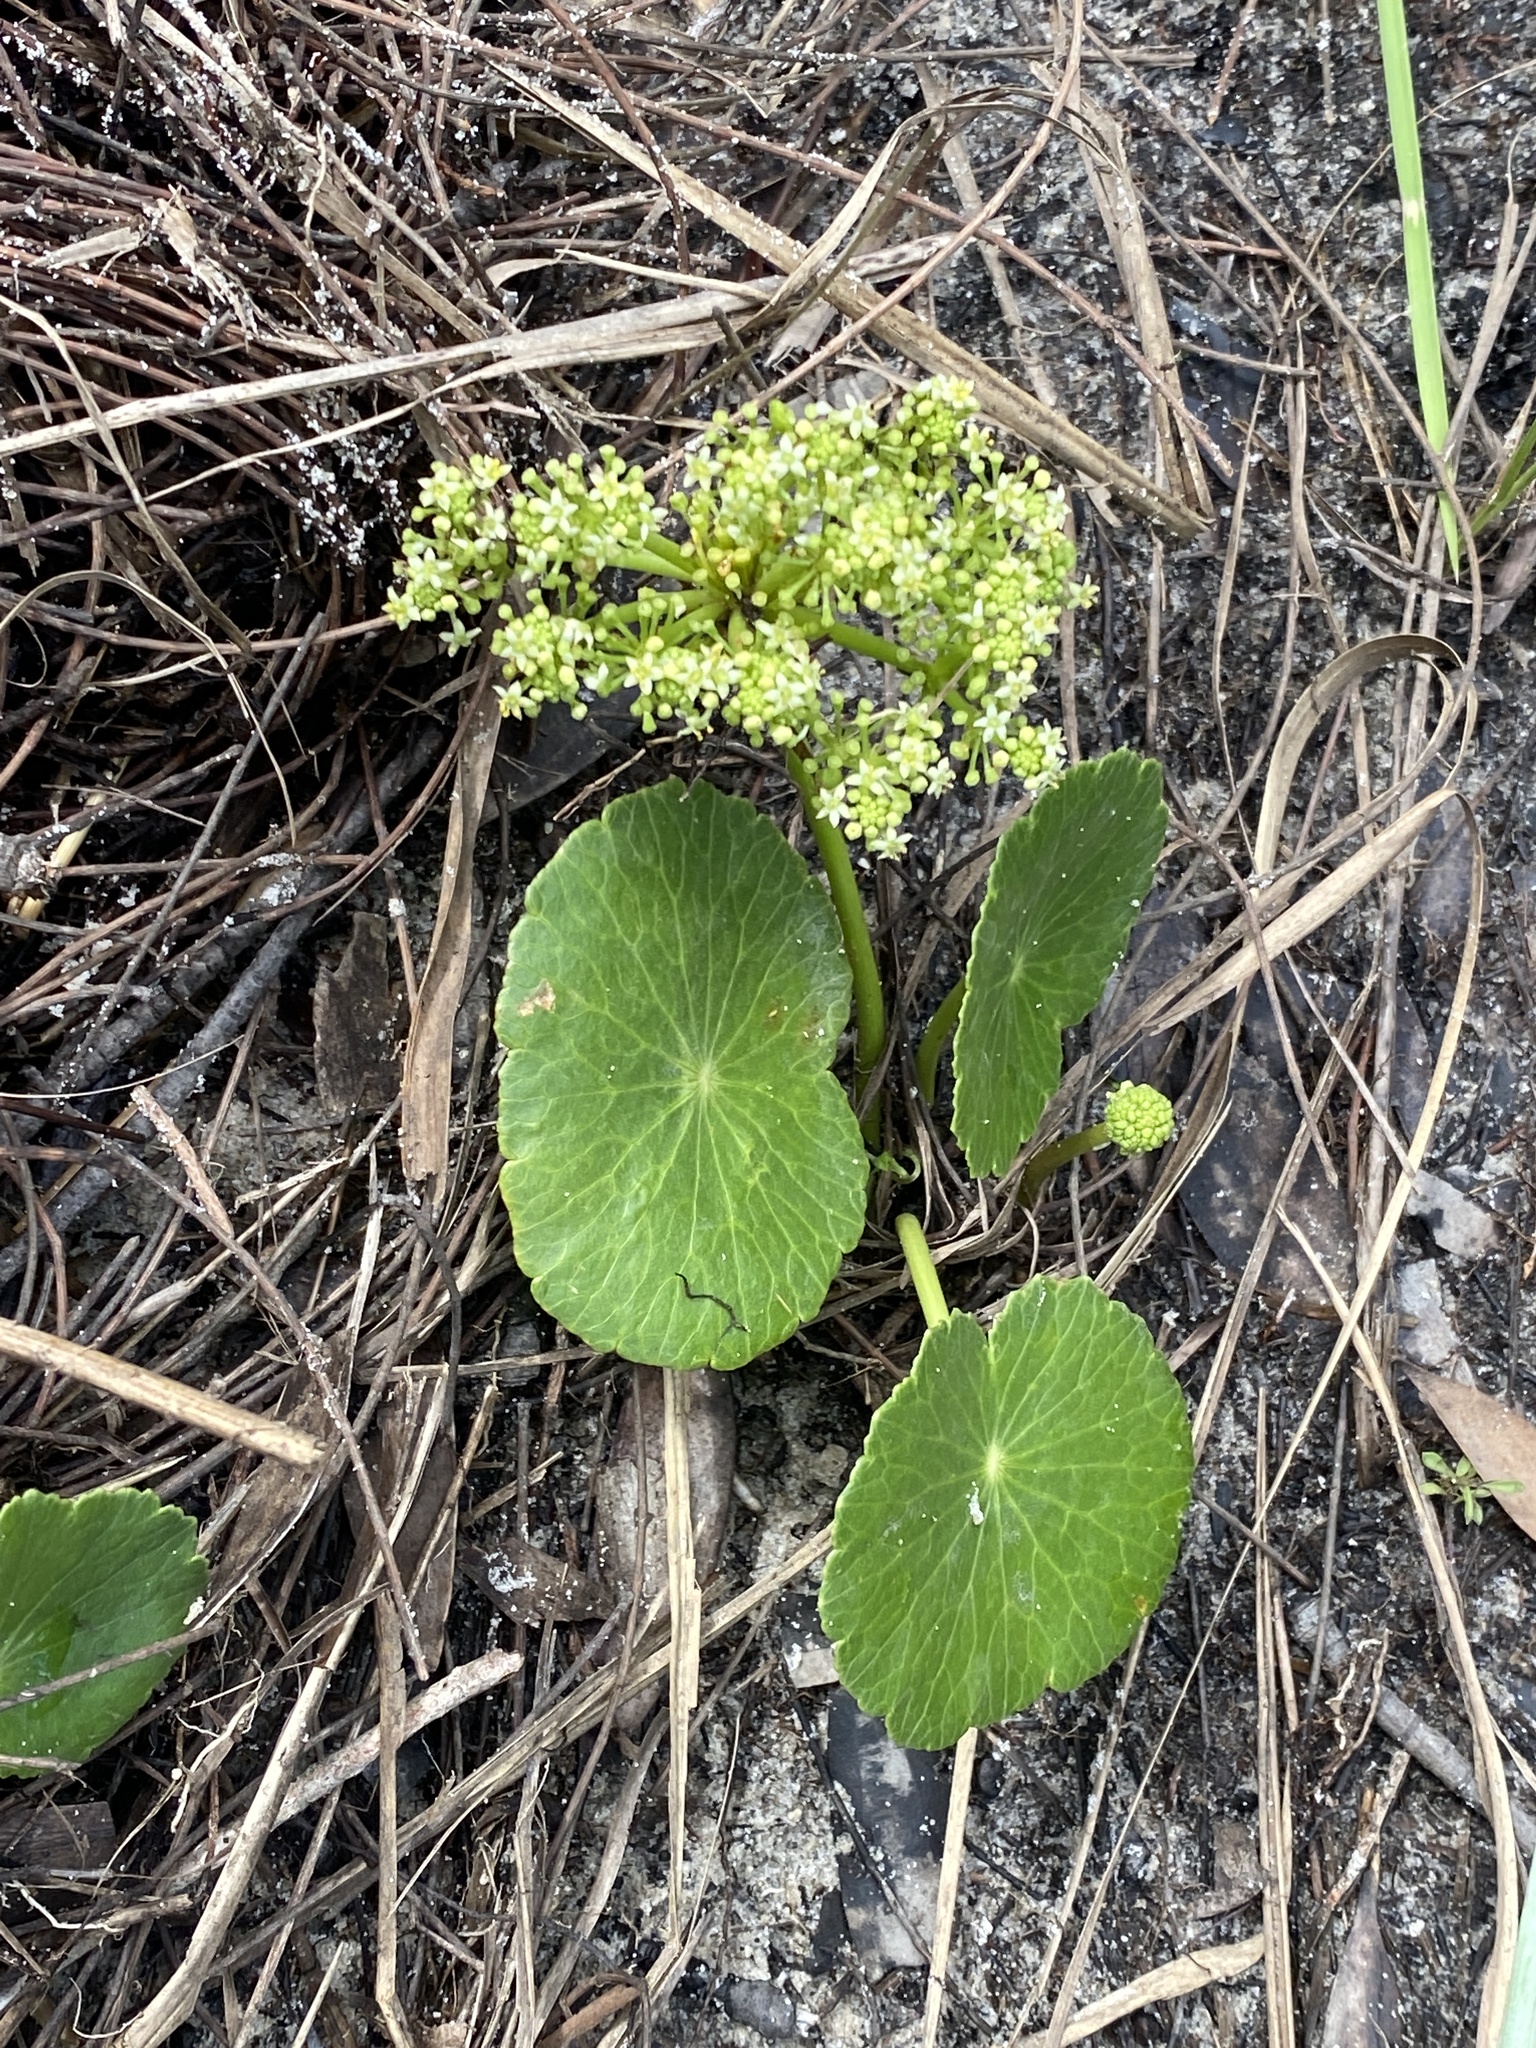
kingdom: Plantae
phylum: Tracheophyta
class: Magnoliopsida
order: Apiales
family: Araliaceae
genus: Hydrocotyle
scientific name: Hydrocotyle bonariensis
